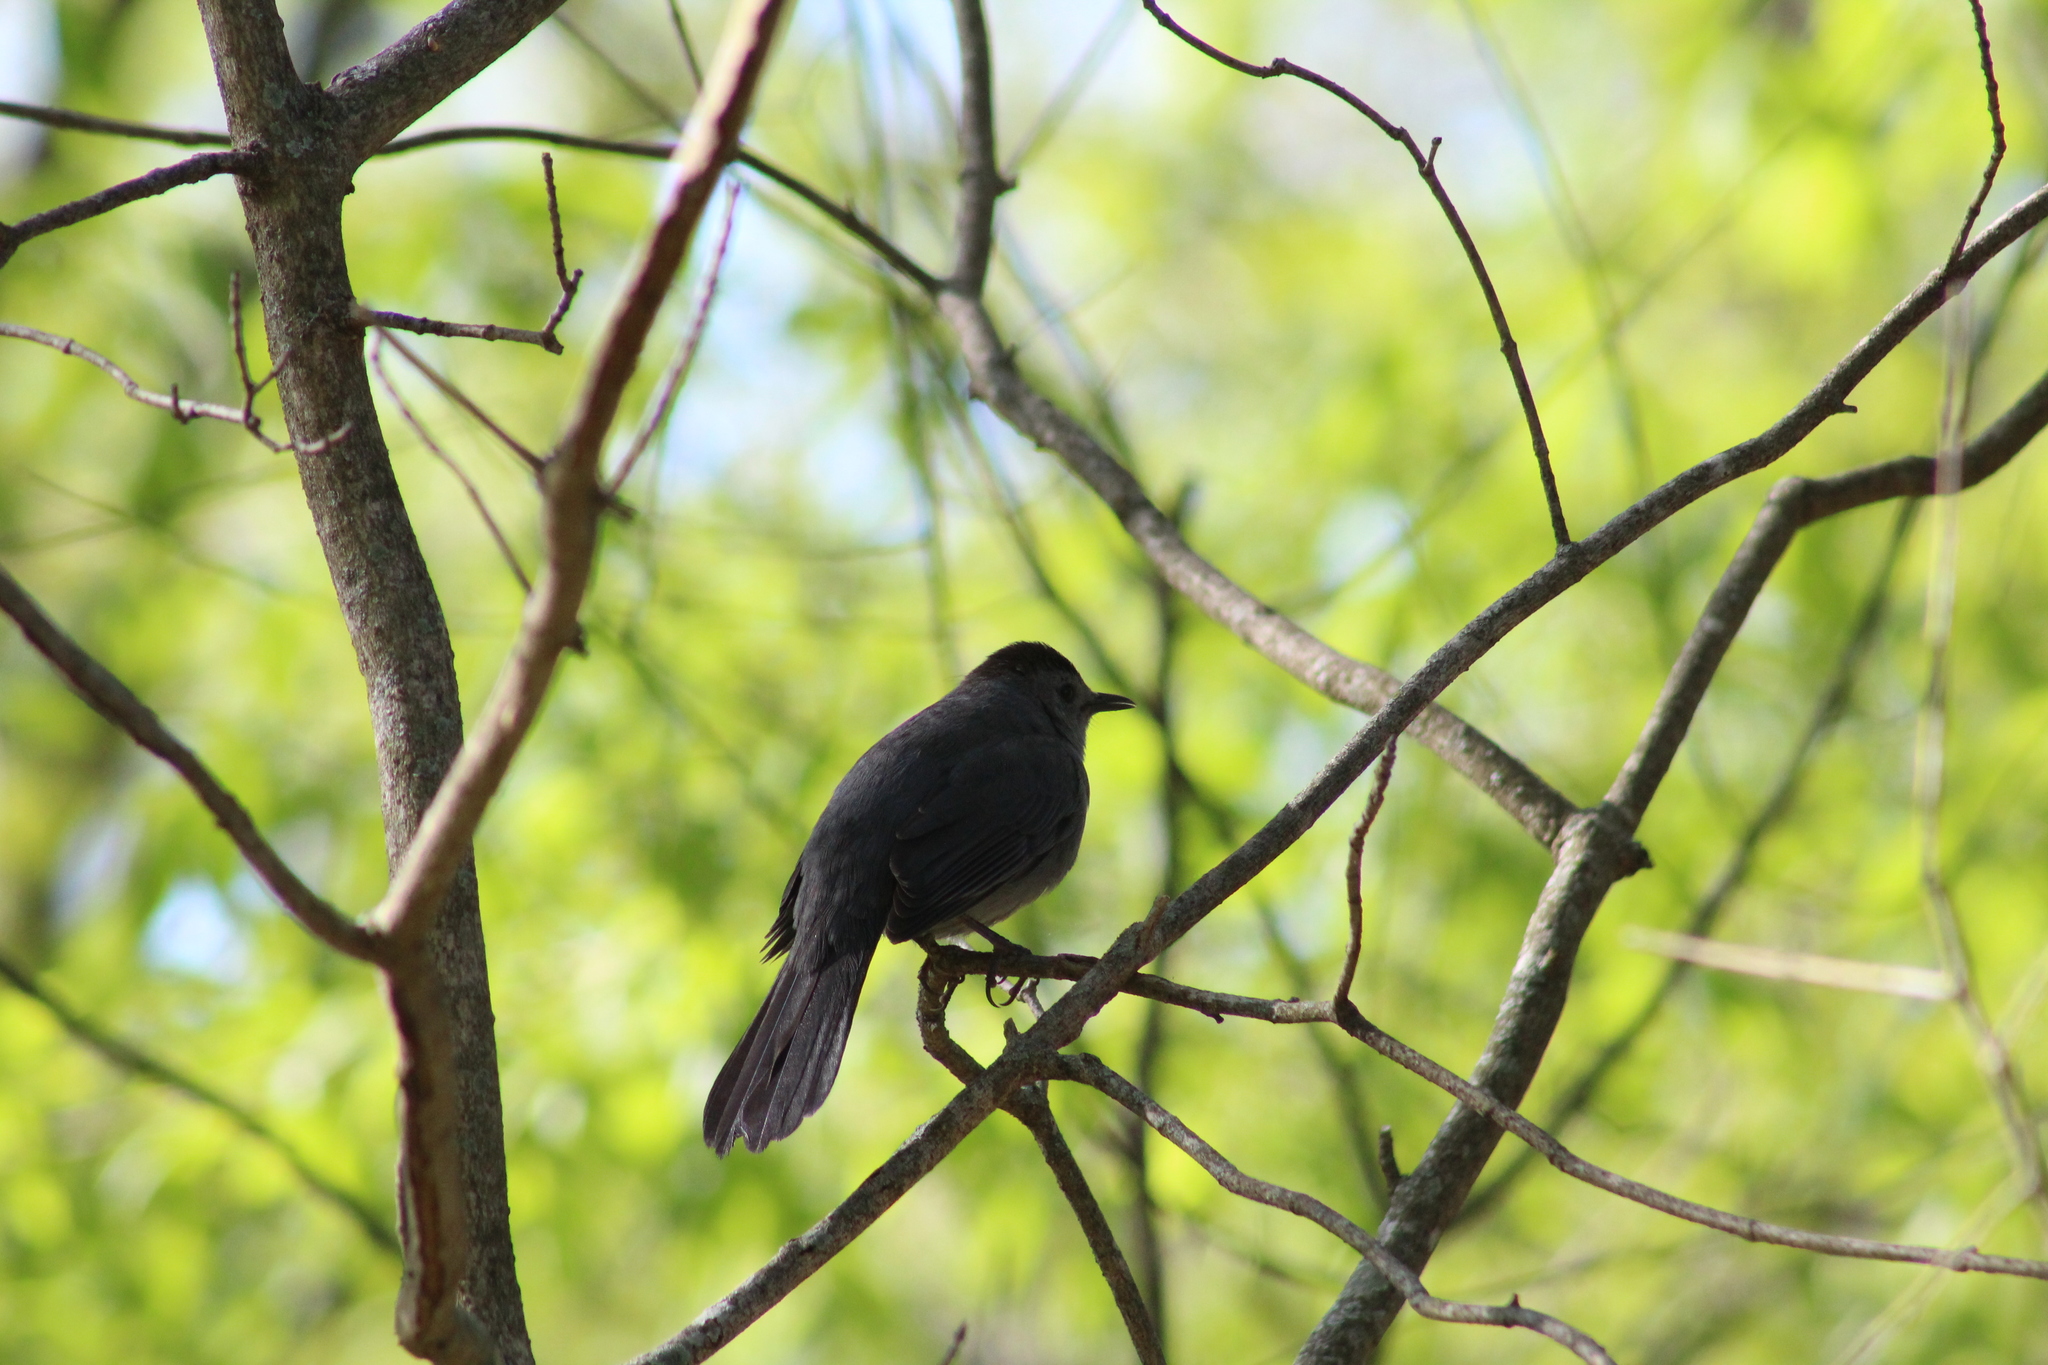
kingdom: Animalia
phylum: Chordata
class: Aves
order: Passeriformes
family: Mimidae
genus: Dumetella
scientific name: Dumetella carolinensis
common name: Gray catbird
